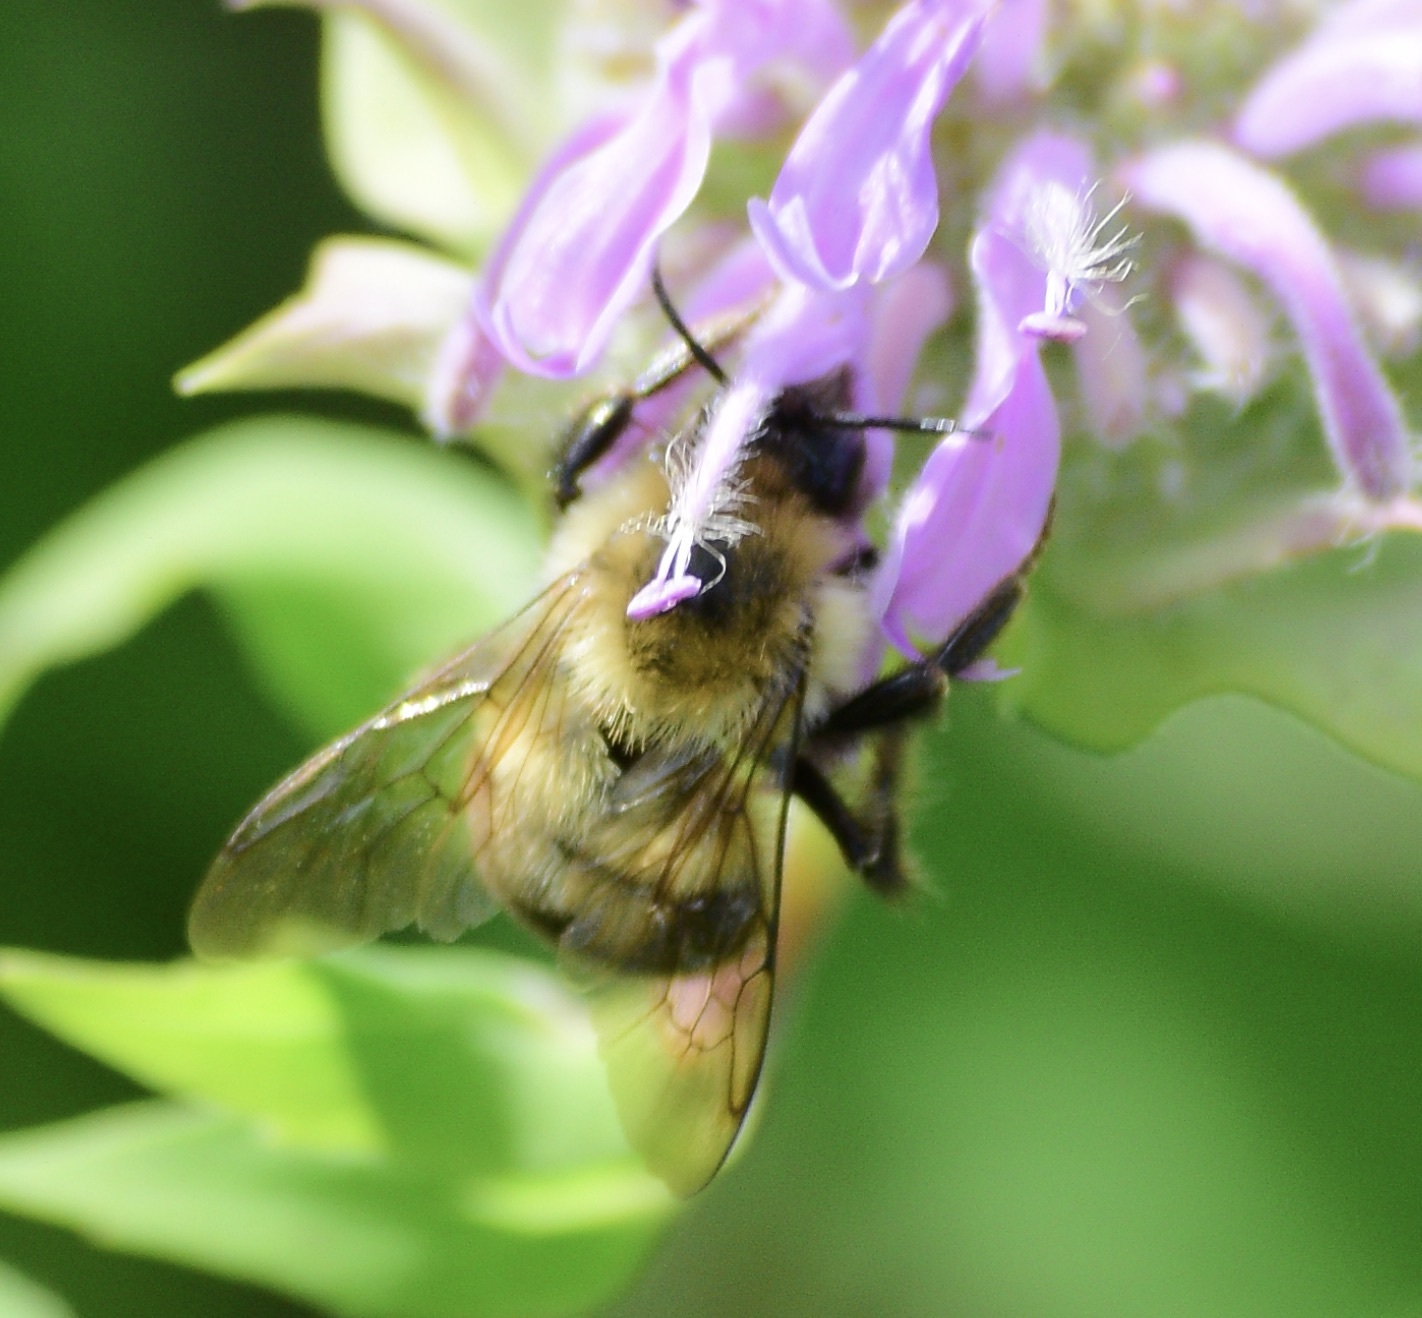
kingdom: Animalia
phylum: Arthropoda
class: Insecta
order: Hymenoptera
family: Apidae
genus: Bombus
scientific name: Bombus bimaculatus
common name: Two-spotted bumble bee
